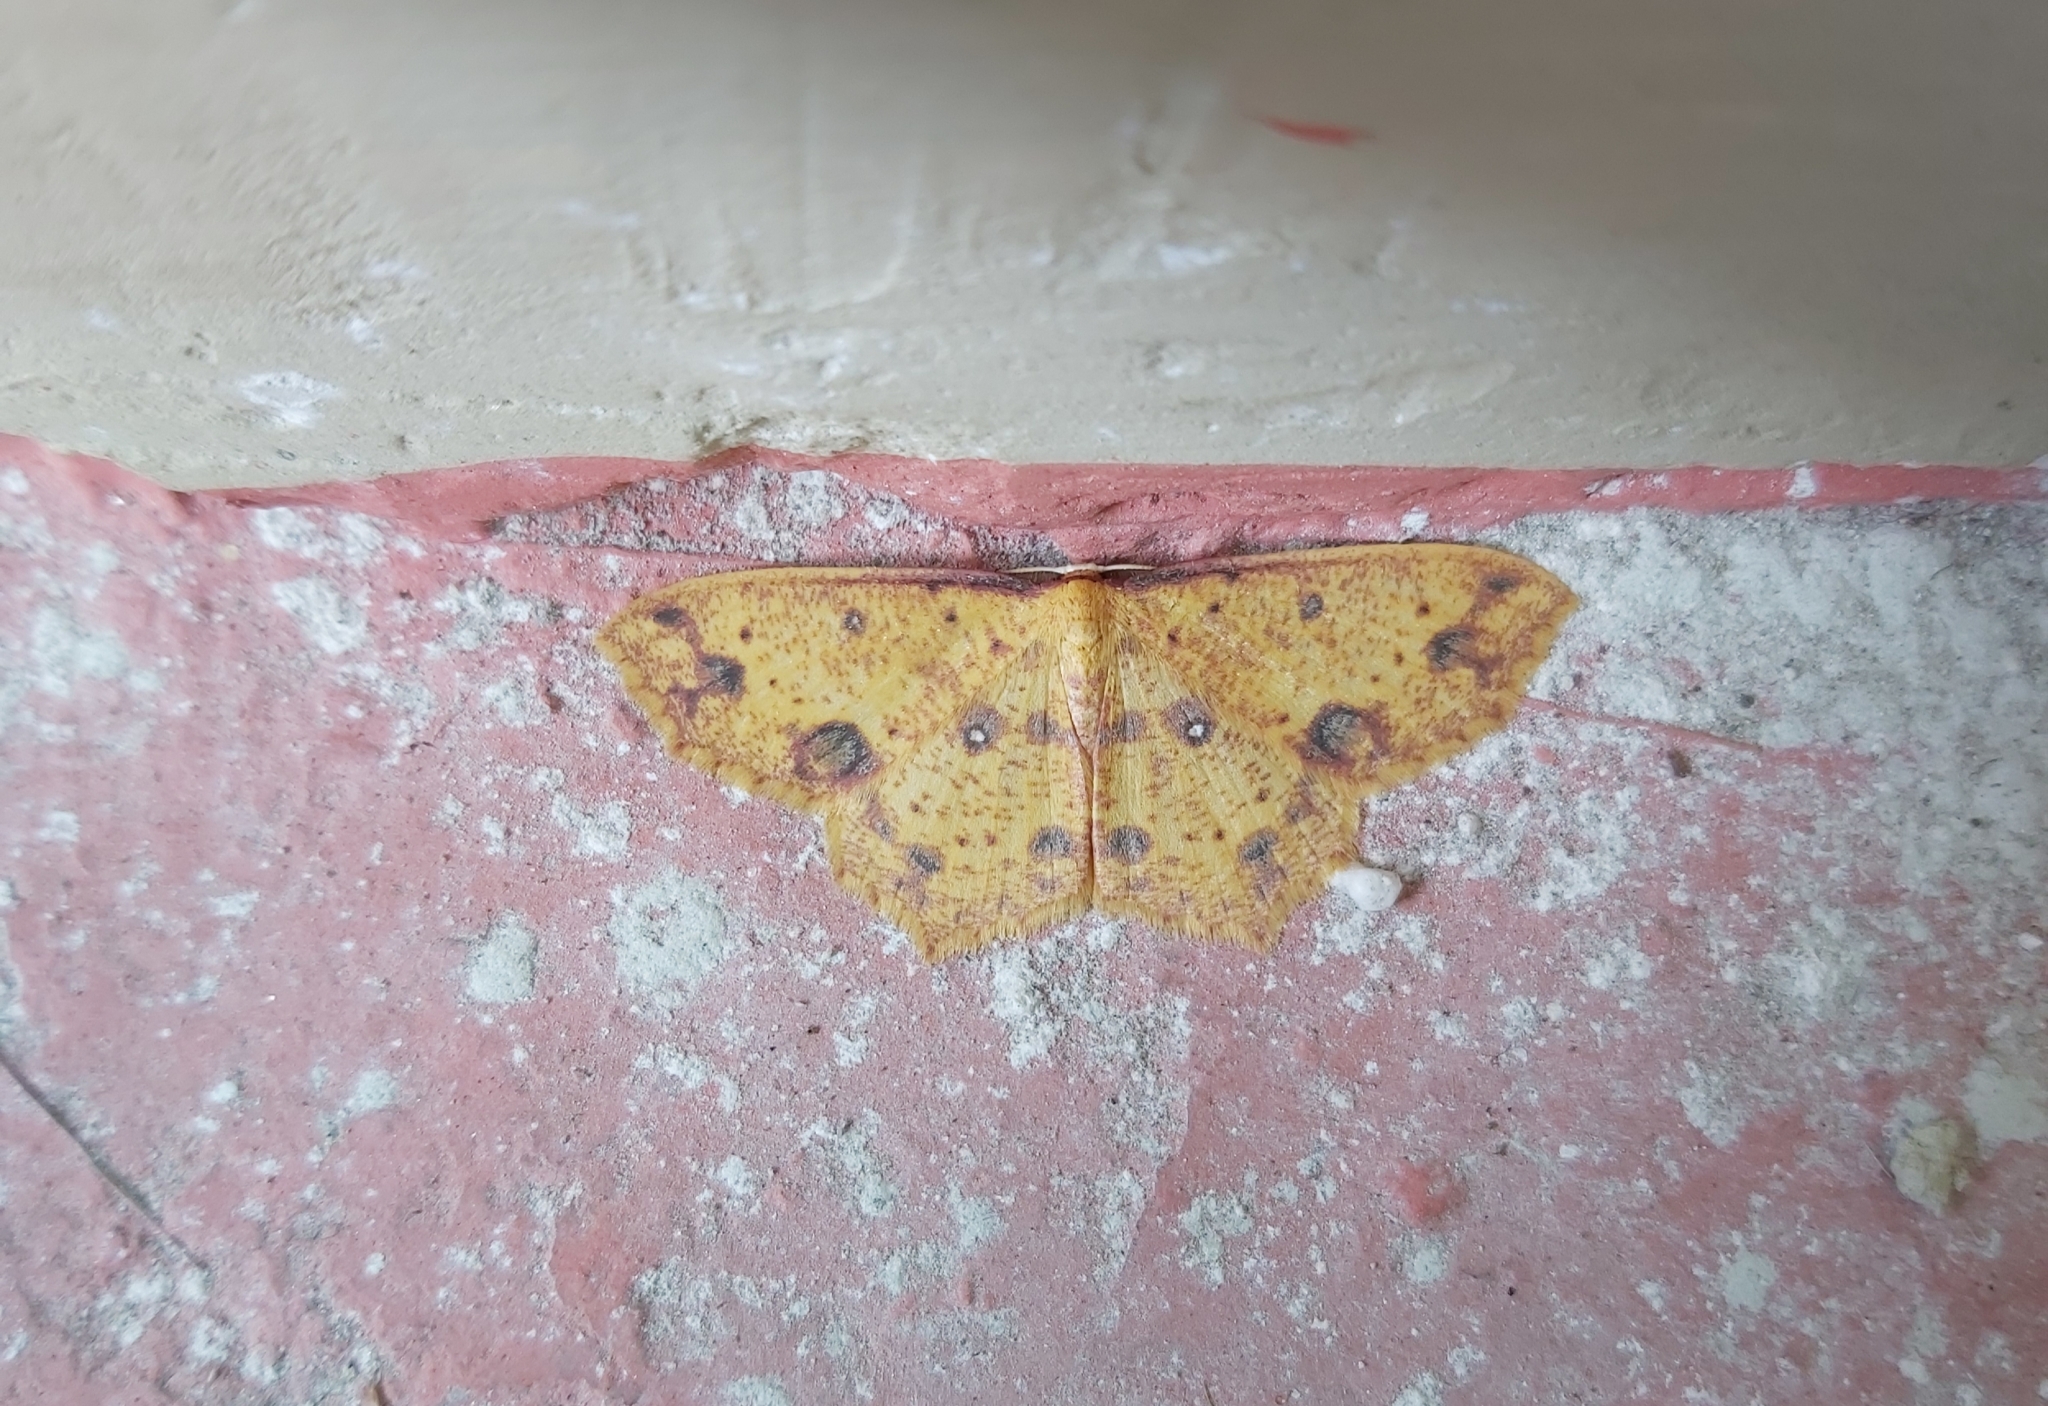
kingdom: Animalia
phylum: Arthropoda
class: Insecta
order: Lepidoptera
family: Geometridae
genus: Synegiodes
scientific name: Synegiodes histrionaria
